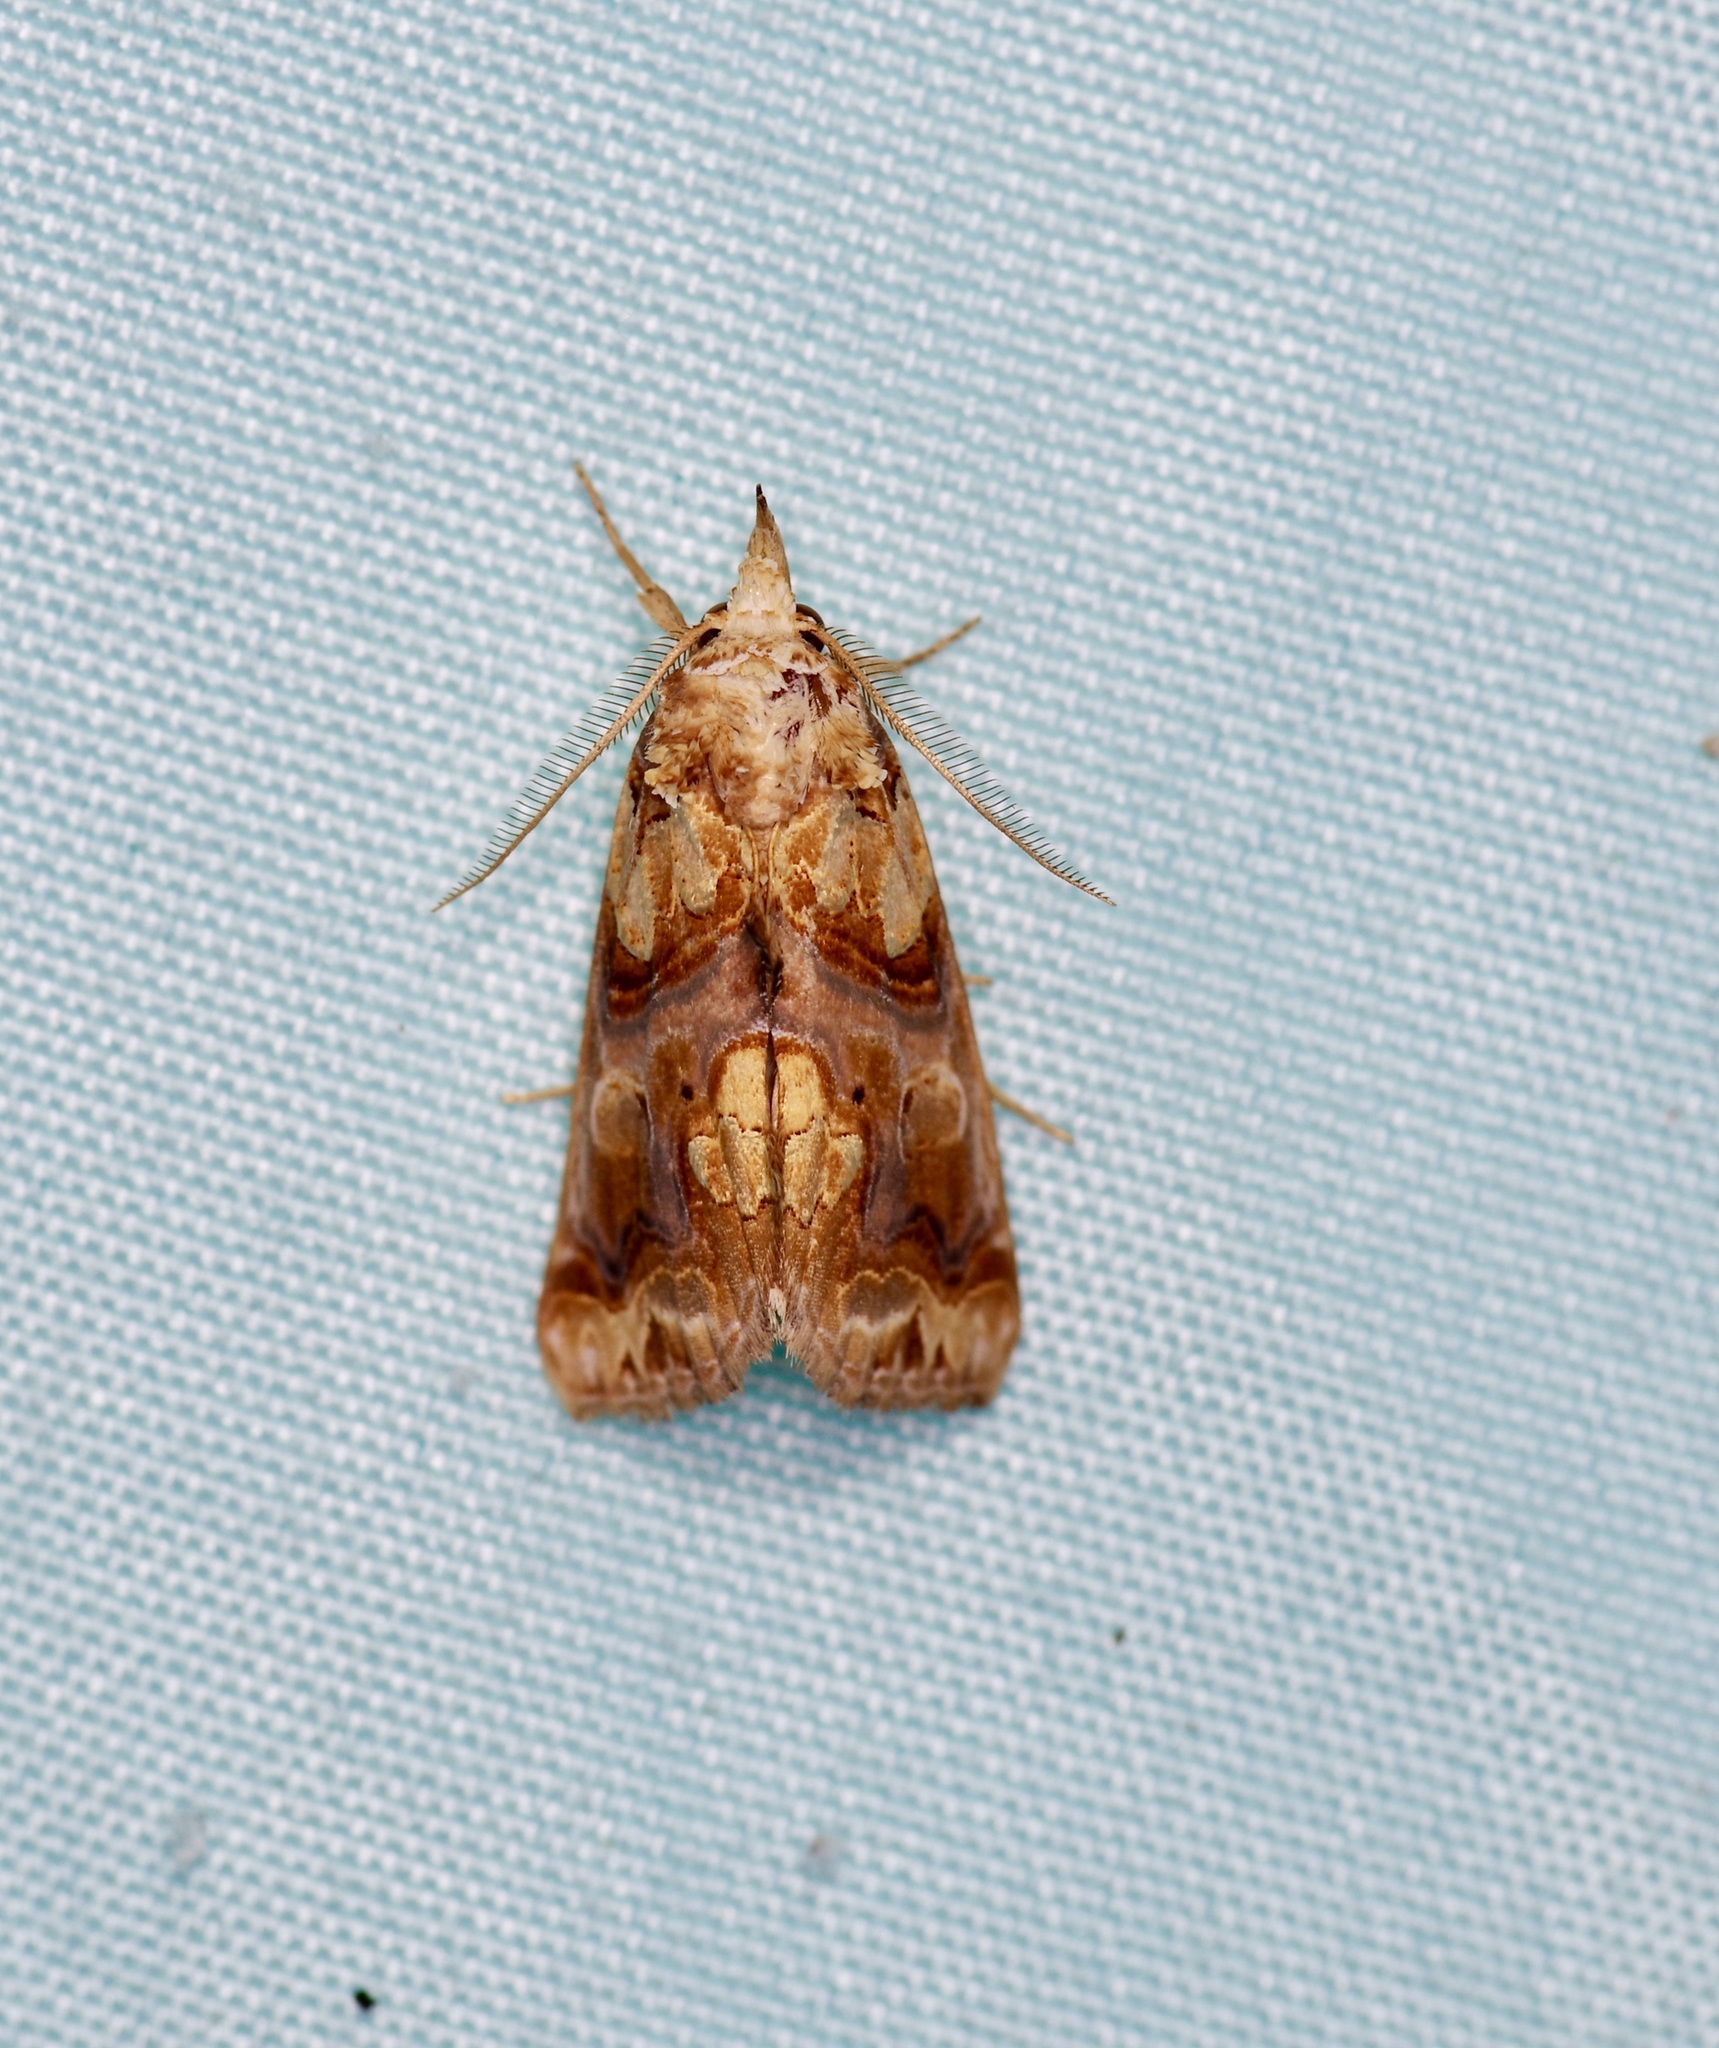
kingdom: Animalia
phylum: Arthropoda
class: Insecta
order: Lepidoptera
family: Erebidae
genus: Plusiodonta
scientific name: Plusiodonta compressipalpis
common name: Moonseed moth
